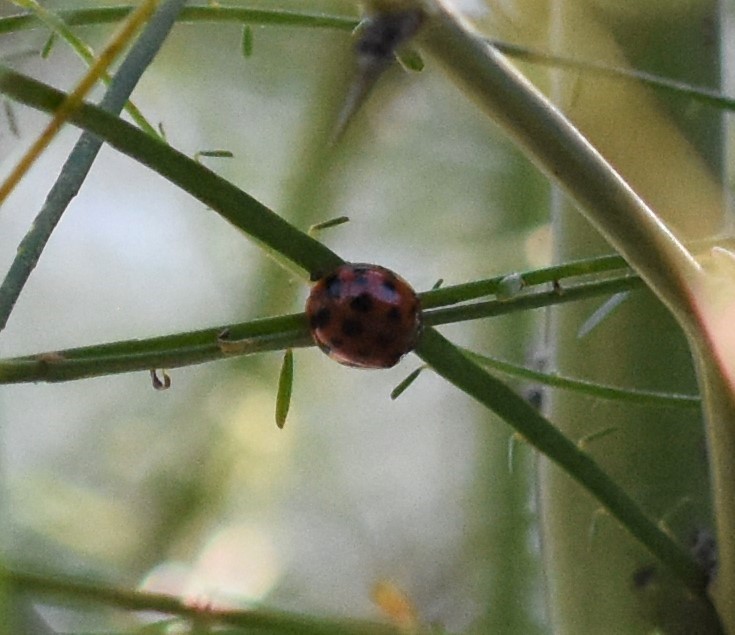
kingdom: Animalia
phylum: Arthropoda
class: Insecta
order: Coleoptera
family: Coccinellidae
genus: Harmonia
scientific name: Harmonia axyridis
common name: Harlequin ladybird
